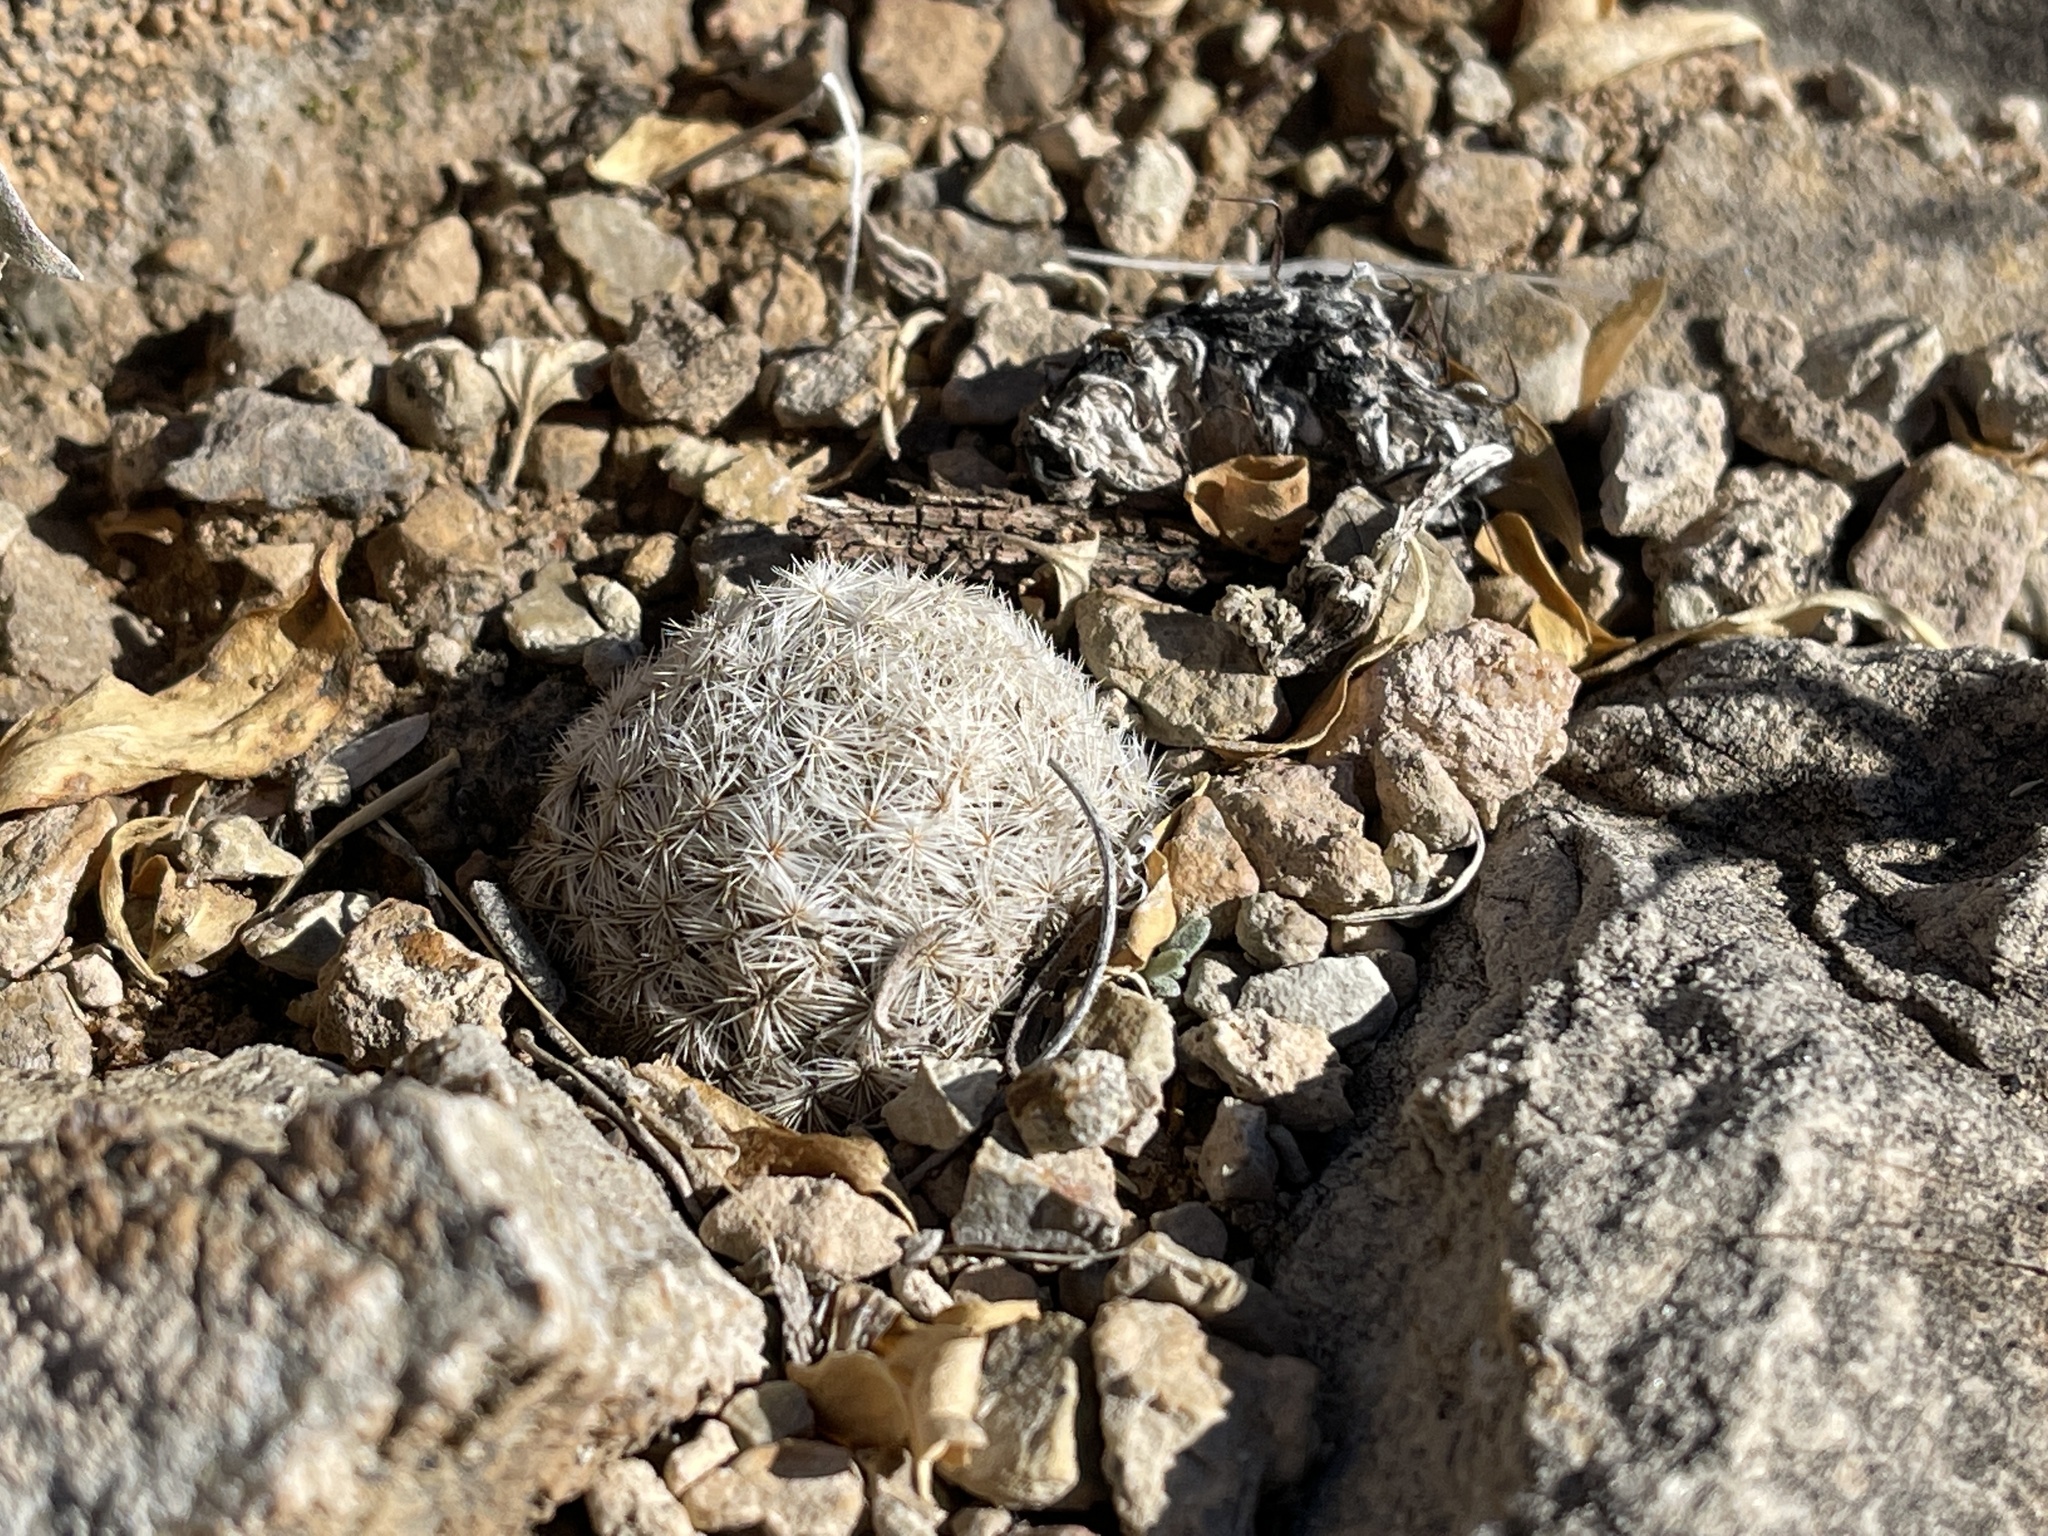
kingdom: Plantae
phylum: Tracheophyta
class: Magnoliopsida
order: Caryophyllales
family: Cactaceae
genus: Mammillaria
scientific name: Mammillaria lasiacantha
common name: Lace-spine nipple cactus
